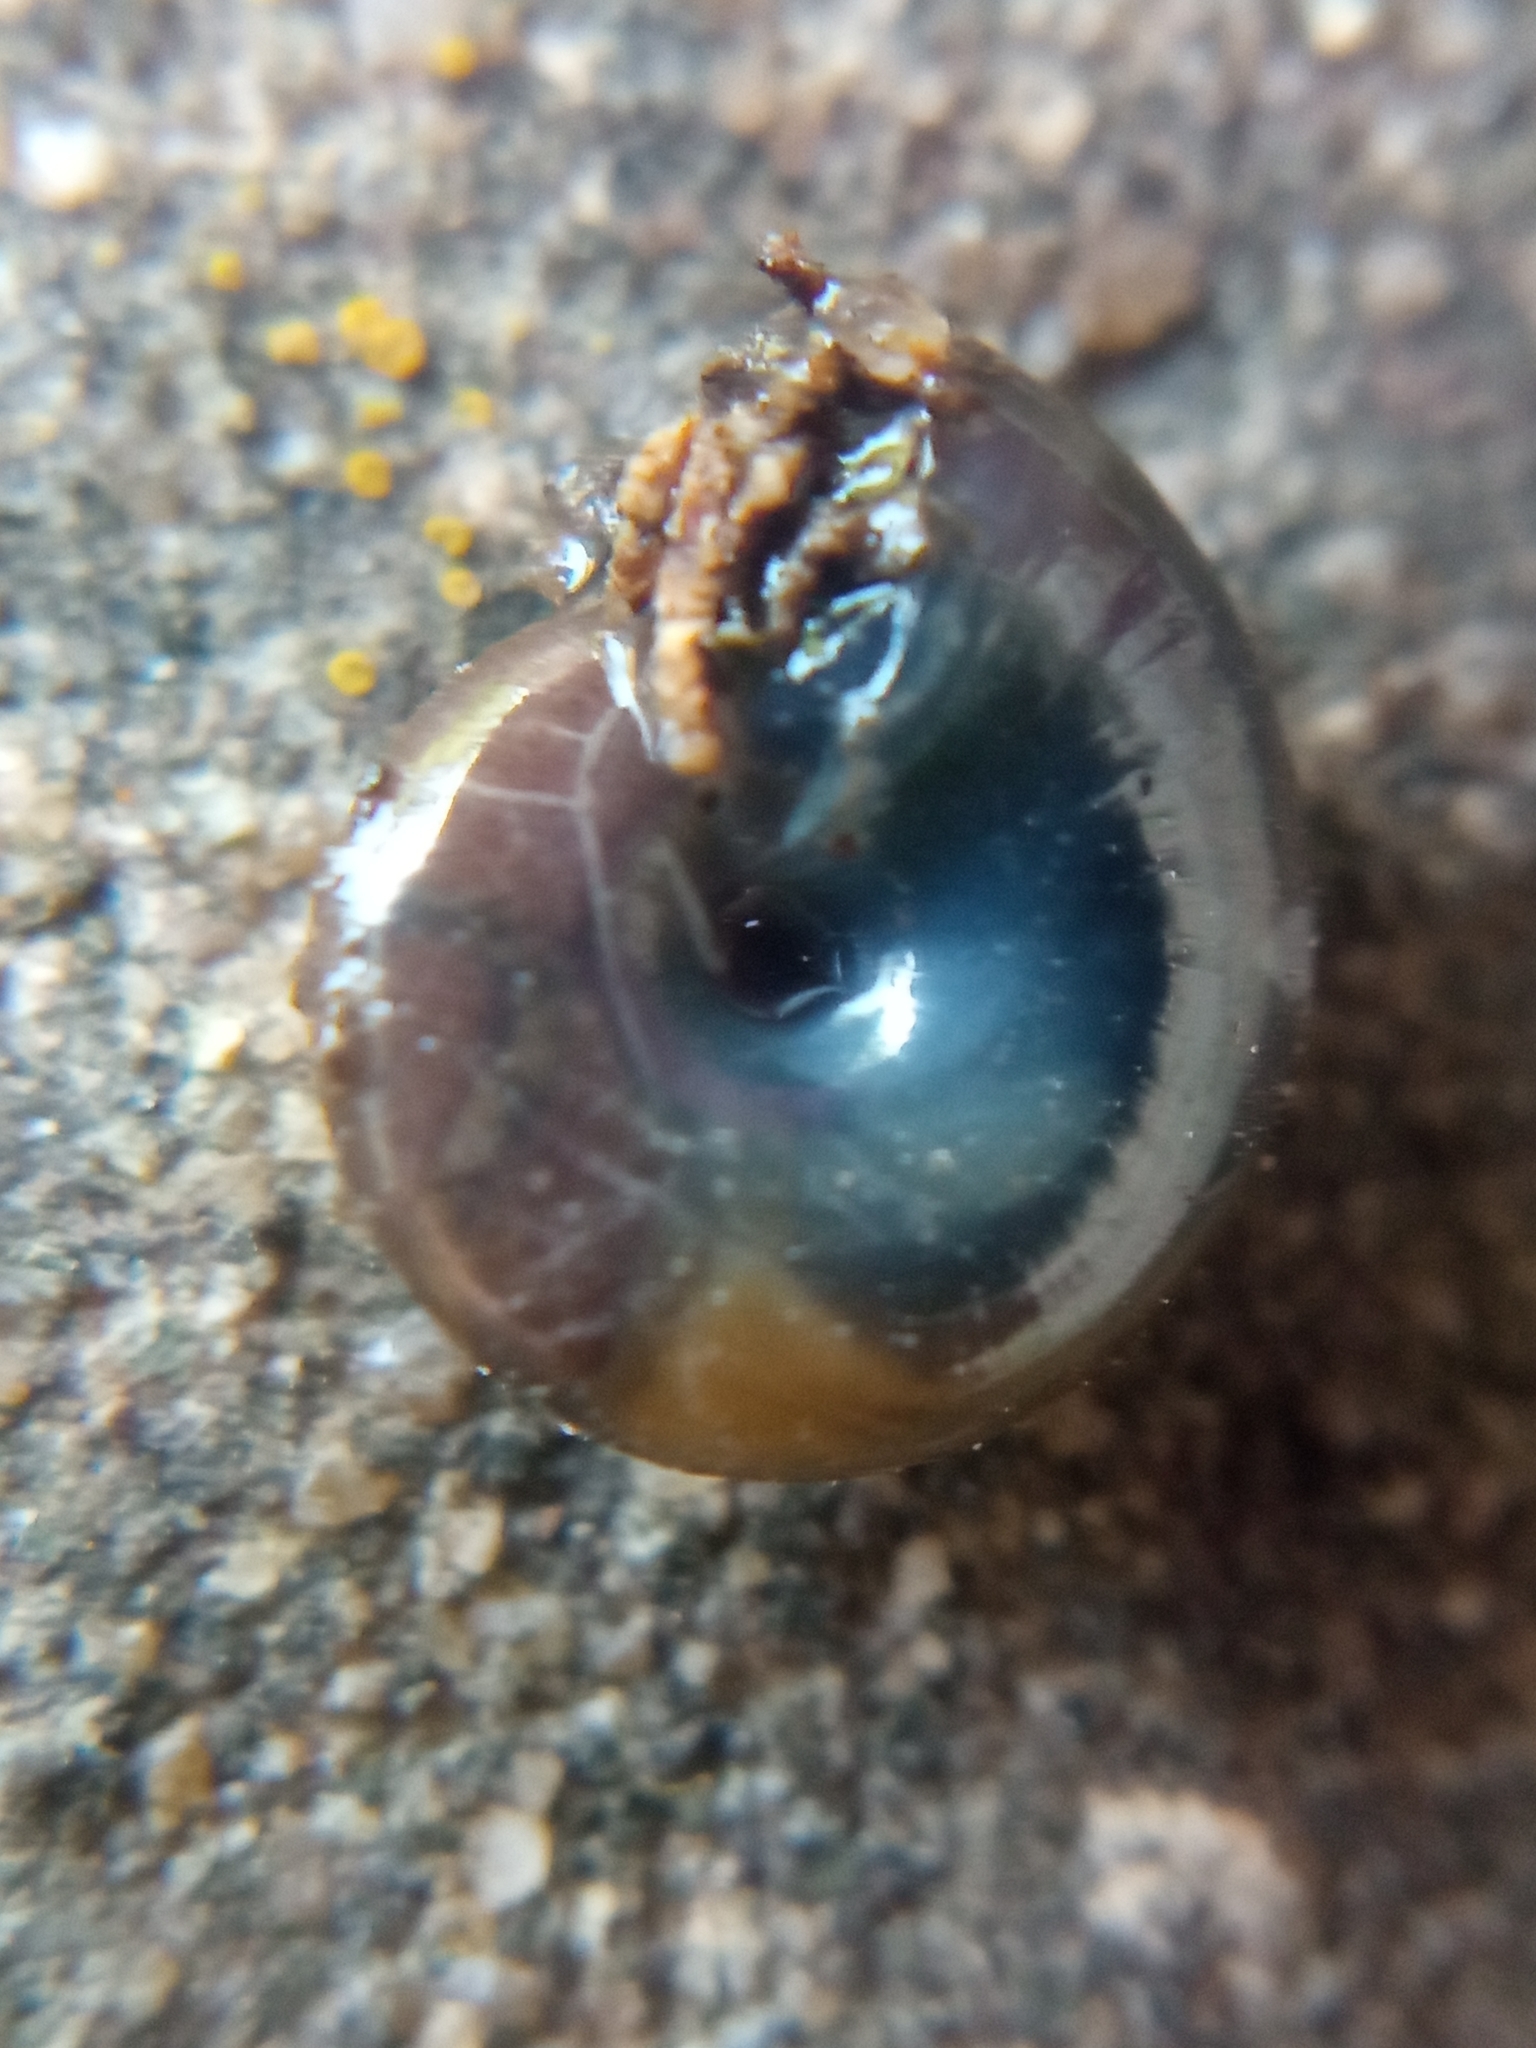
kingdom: Animalia
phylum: Mollusca
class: Gastropoda
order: Stylommatophora
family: Oxychilidae
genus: Mediterranea
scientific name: Mediterranea depressa
